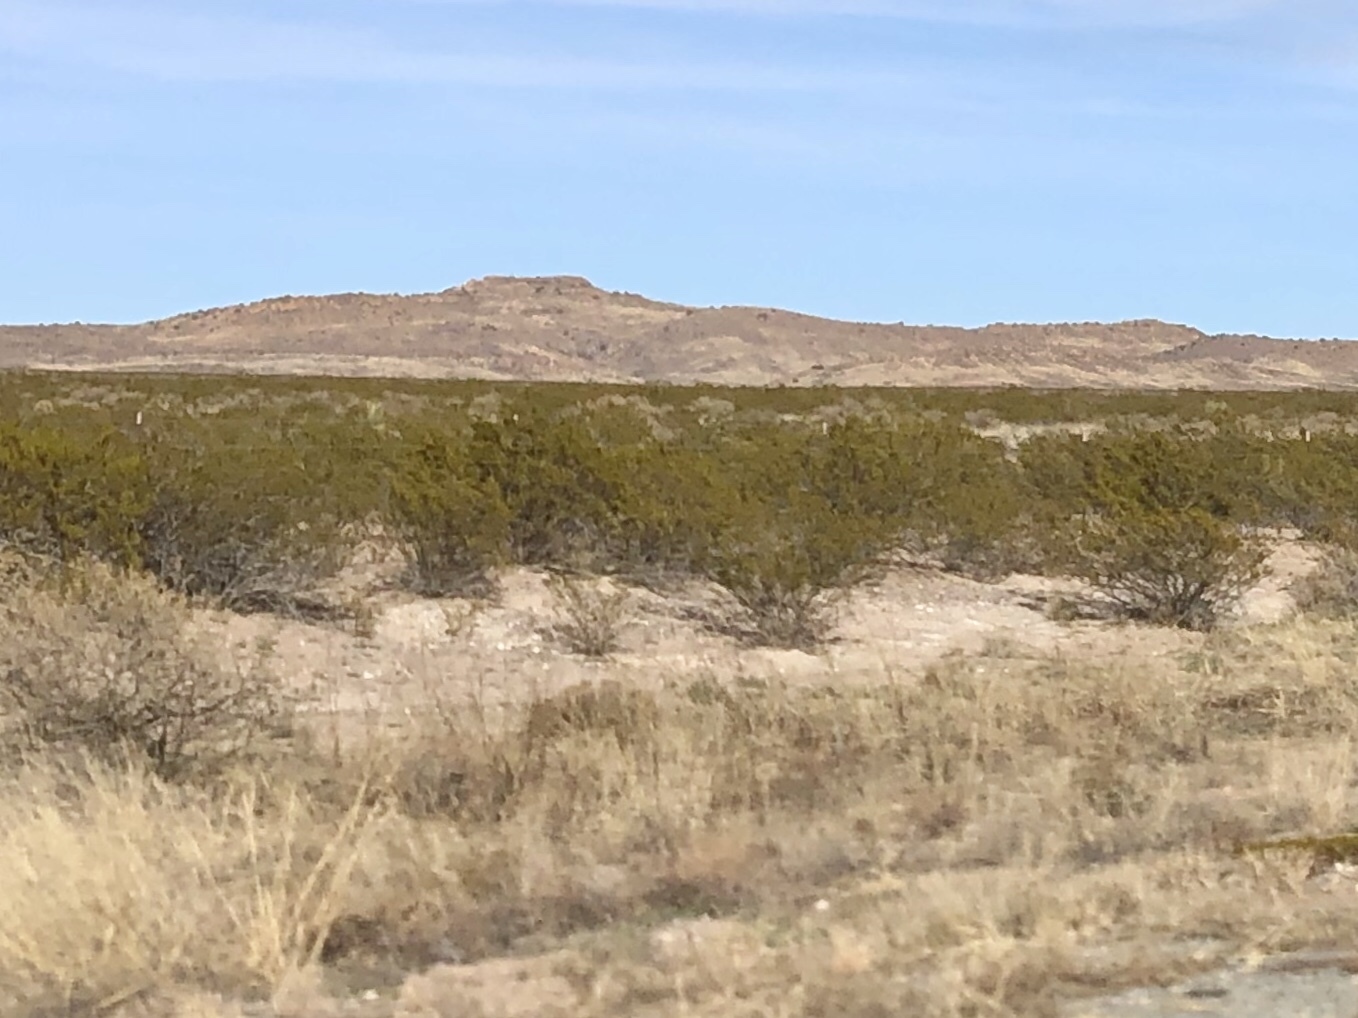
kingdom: Plantae
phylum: Tracheophyta
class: Magnoliopsida
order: Zygophyllales
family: Zygophyllaceae
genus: Larrea
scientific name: Larrea tridentata
